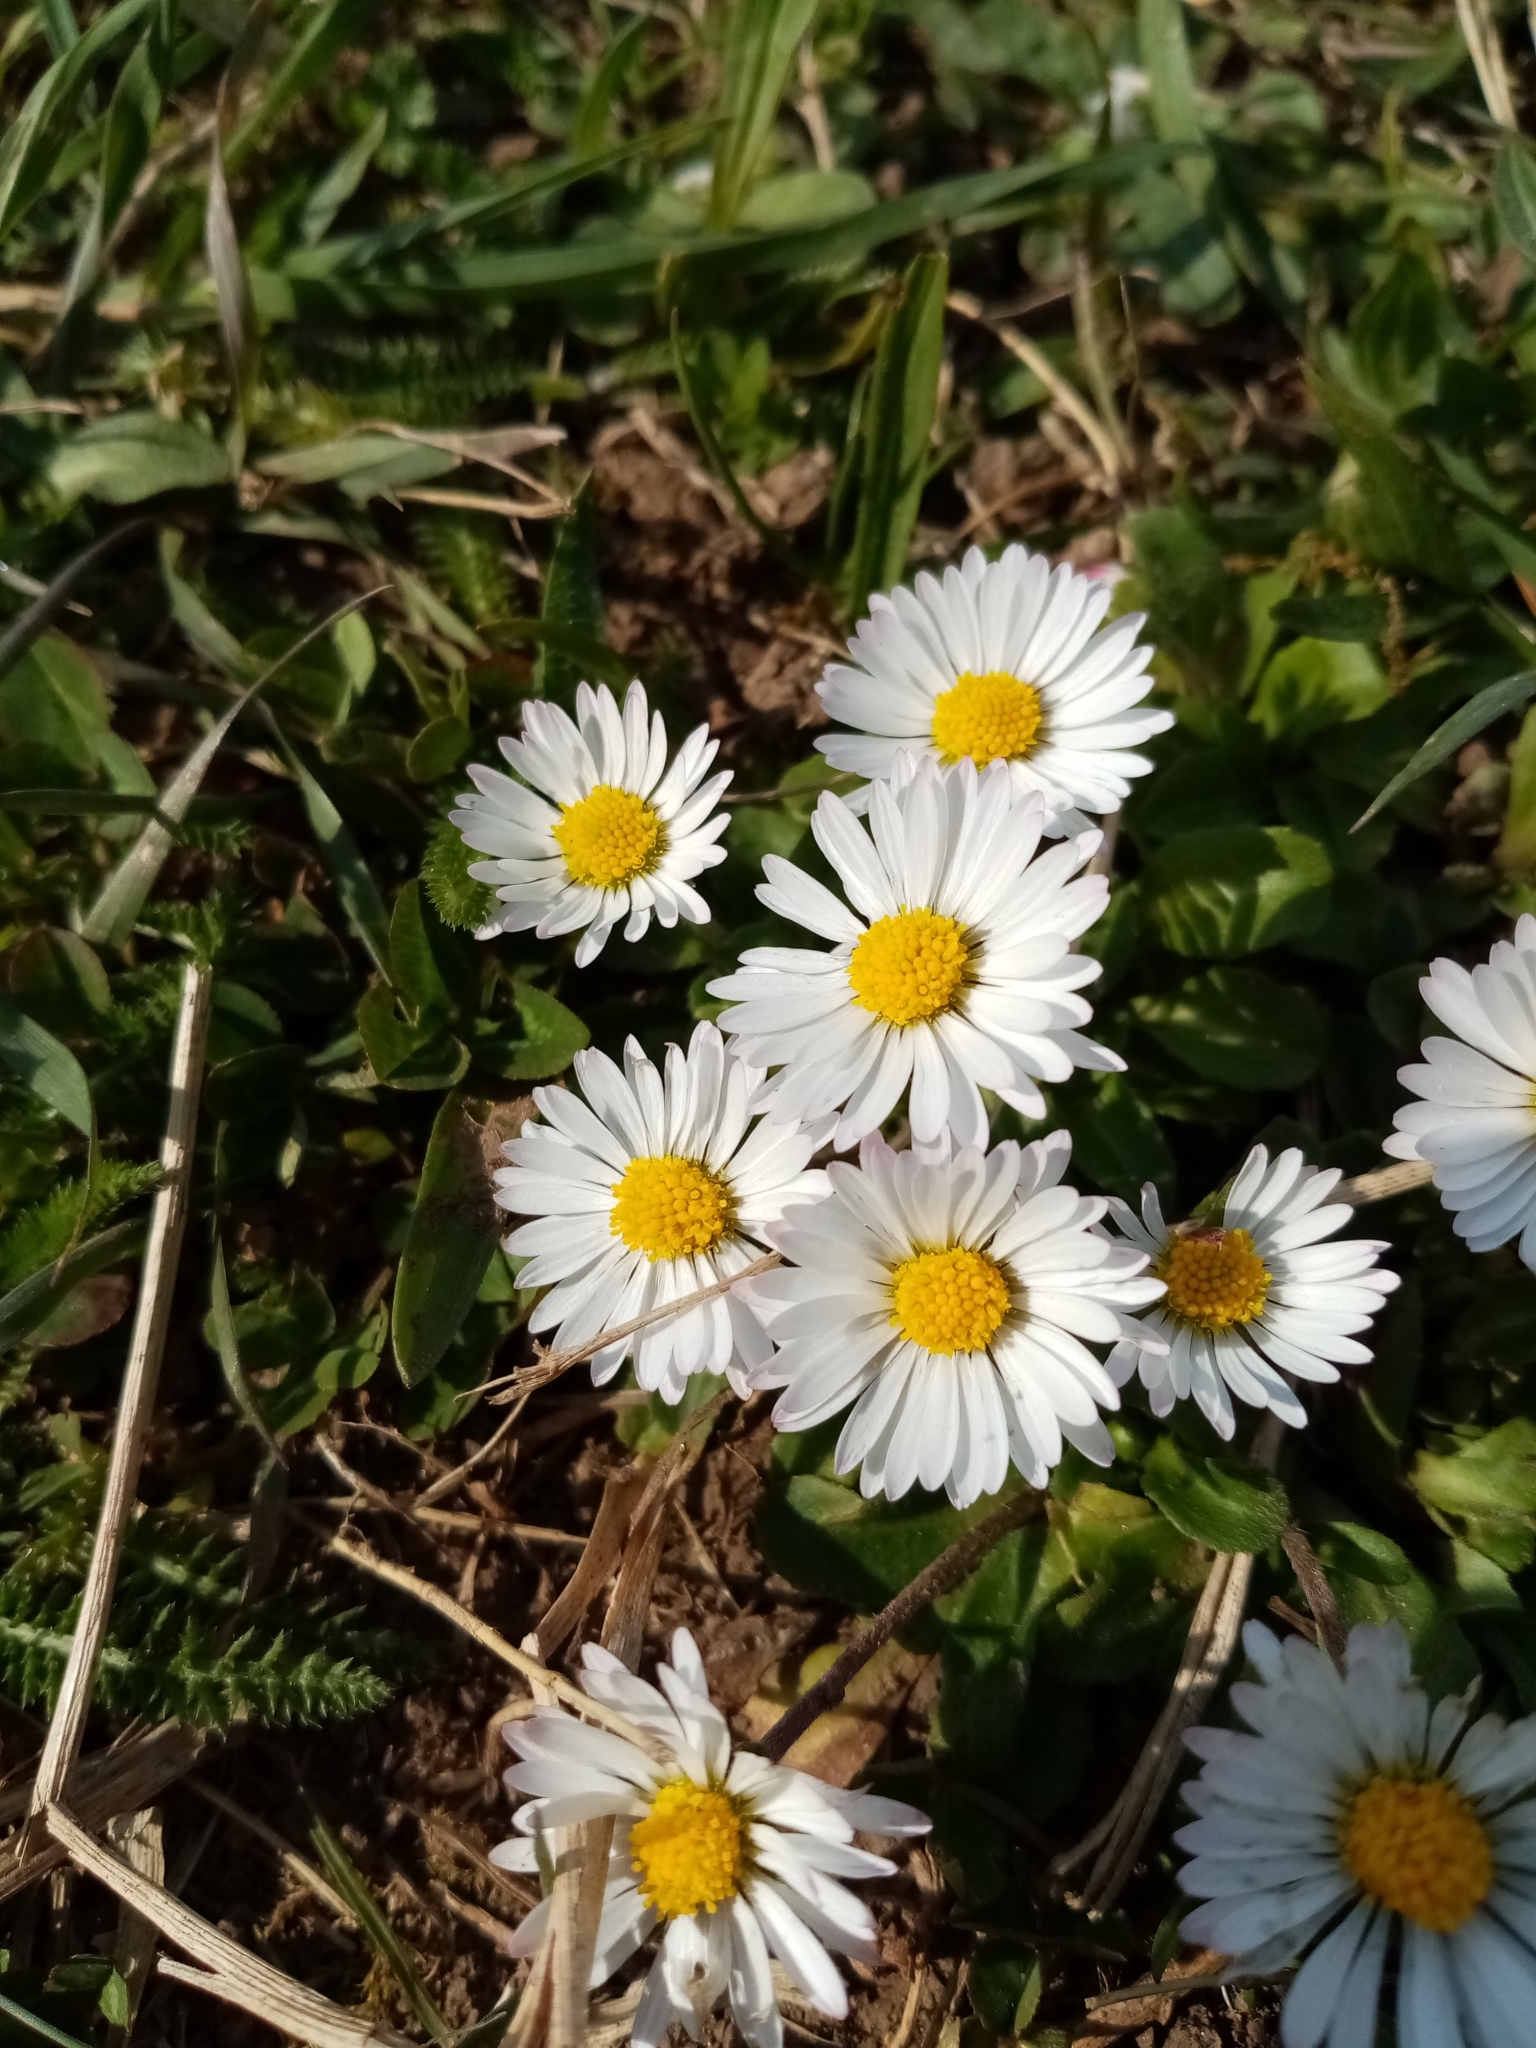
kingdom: Plantae
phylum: Tracheophyta
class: Magnoliopsida
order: Asterales
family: Asteraceae
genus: Bellis
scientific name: Bellis perennis
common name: Lawndaisy
